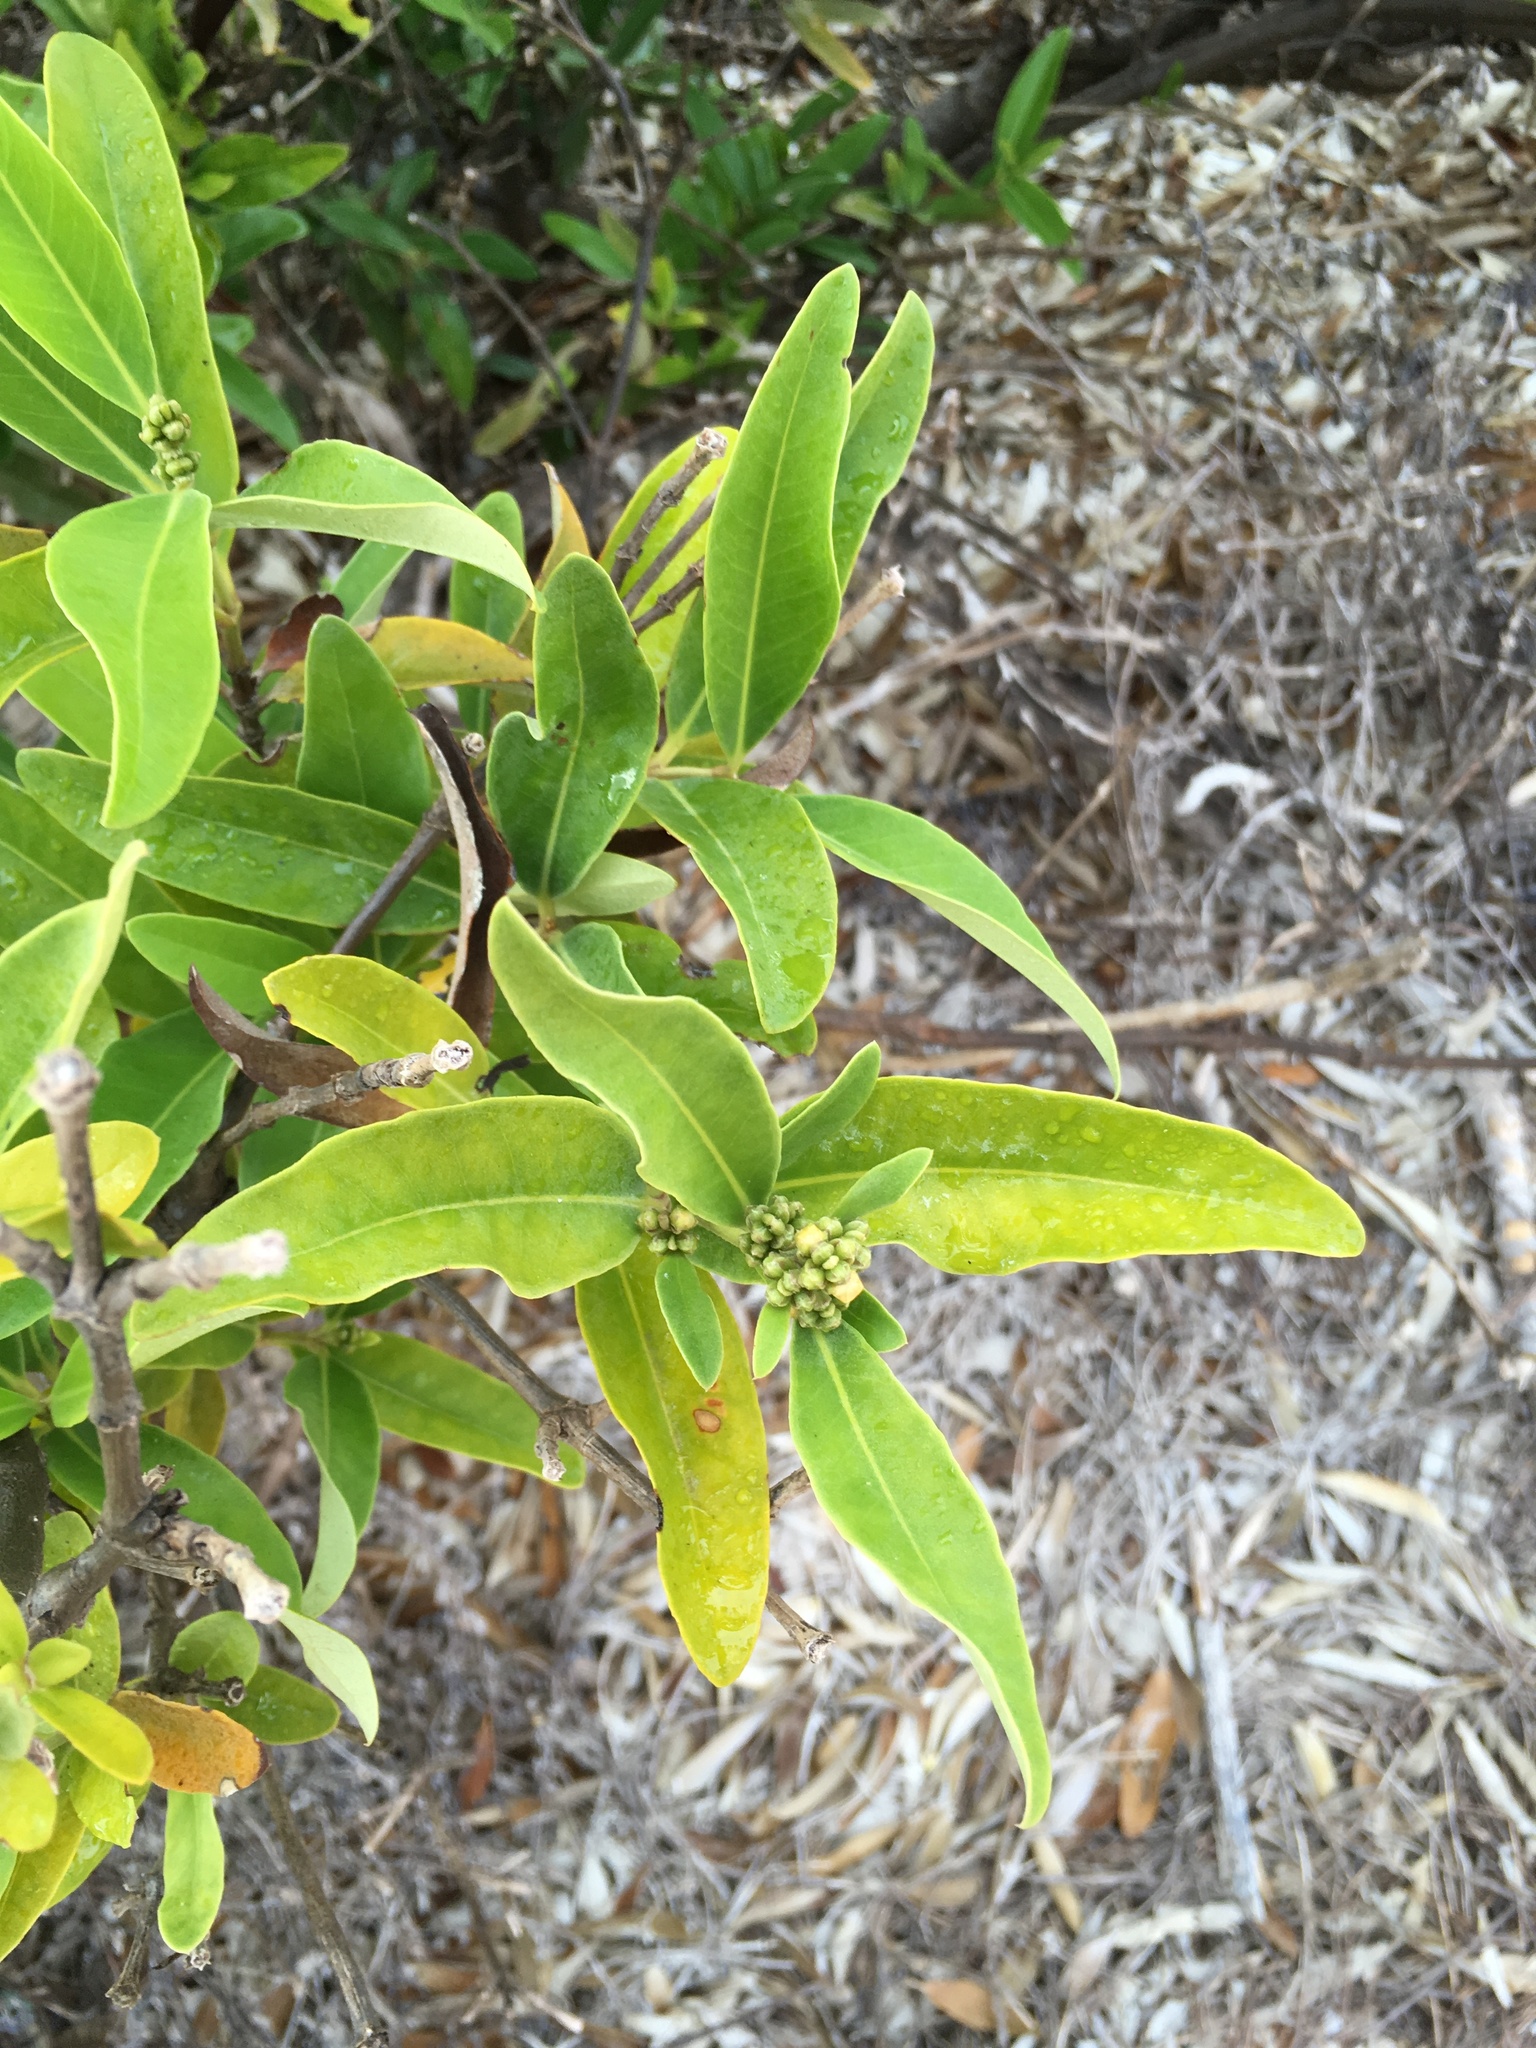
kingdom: Plantae
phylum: Tracheophyta
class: Magnoliopsida
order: Lamiales
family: Acanthaceae
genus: Avicennia
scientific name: Avicennia germinans
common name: Black mangrove
